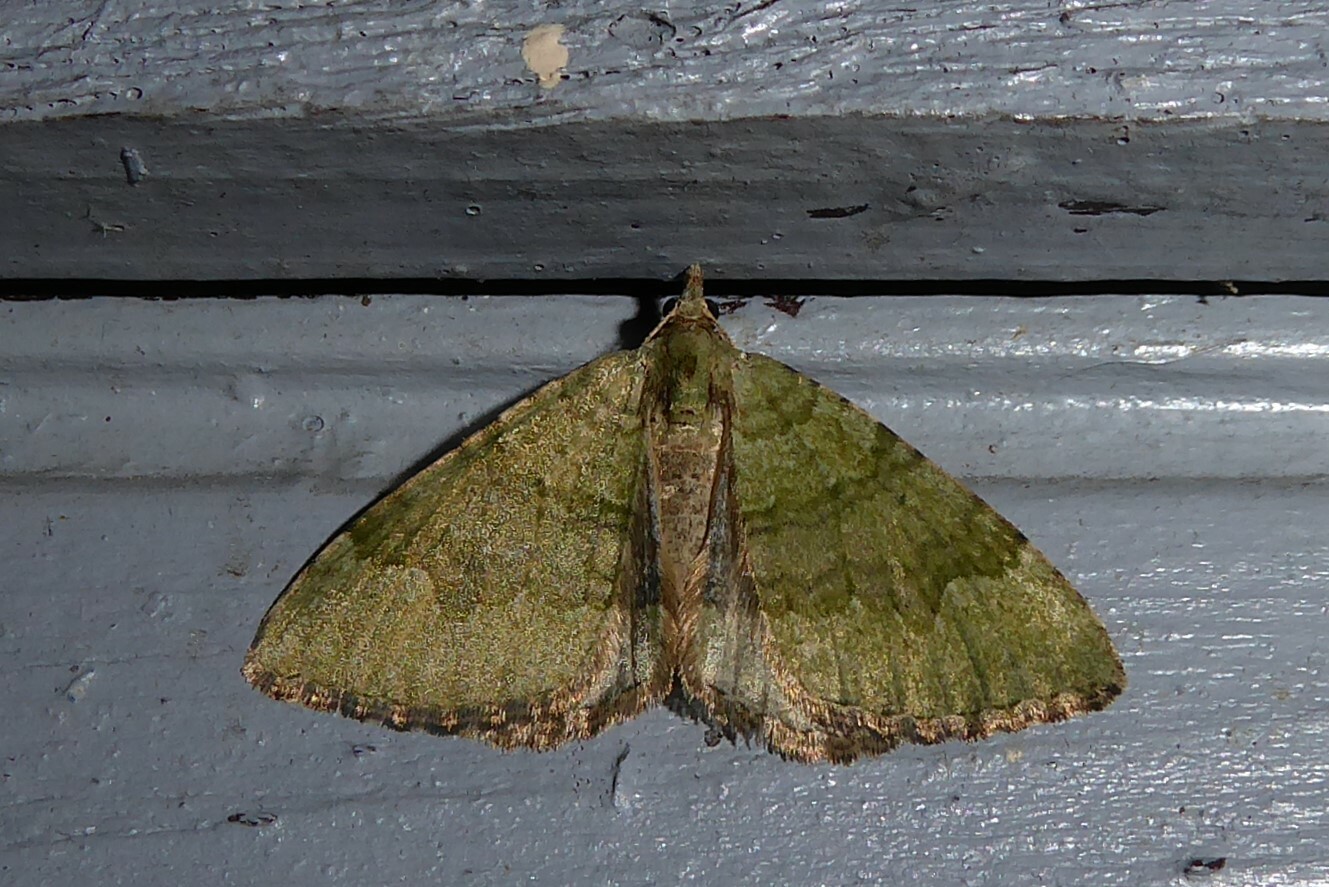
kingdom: Animalia
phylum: Arthropoda
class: Insecta
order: Lepidoptera
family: Geometridae
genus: Epyaxa
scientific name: Epyaxa rosearia
